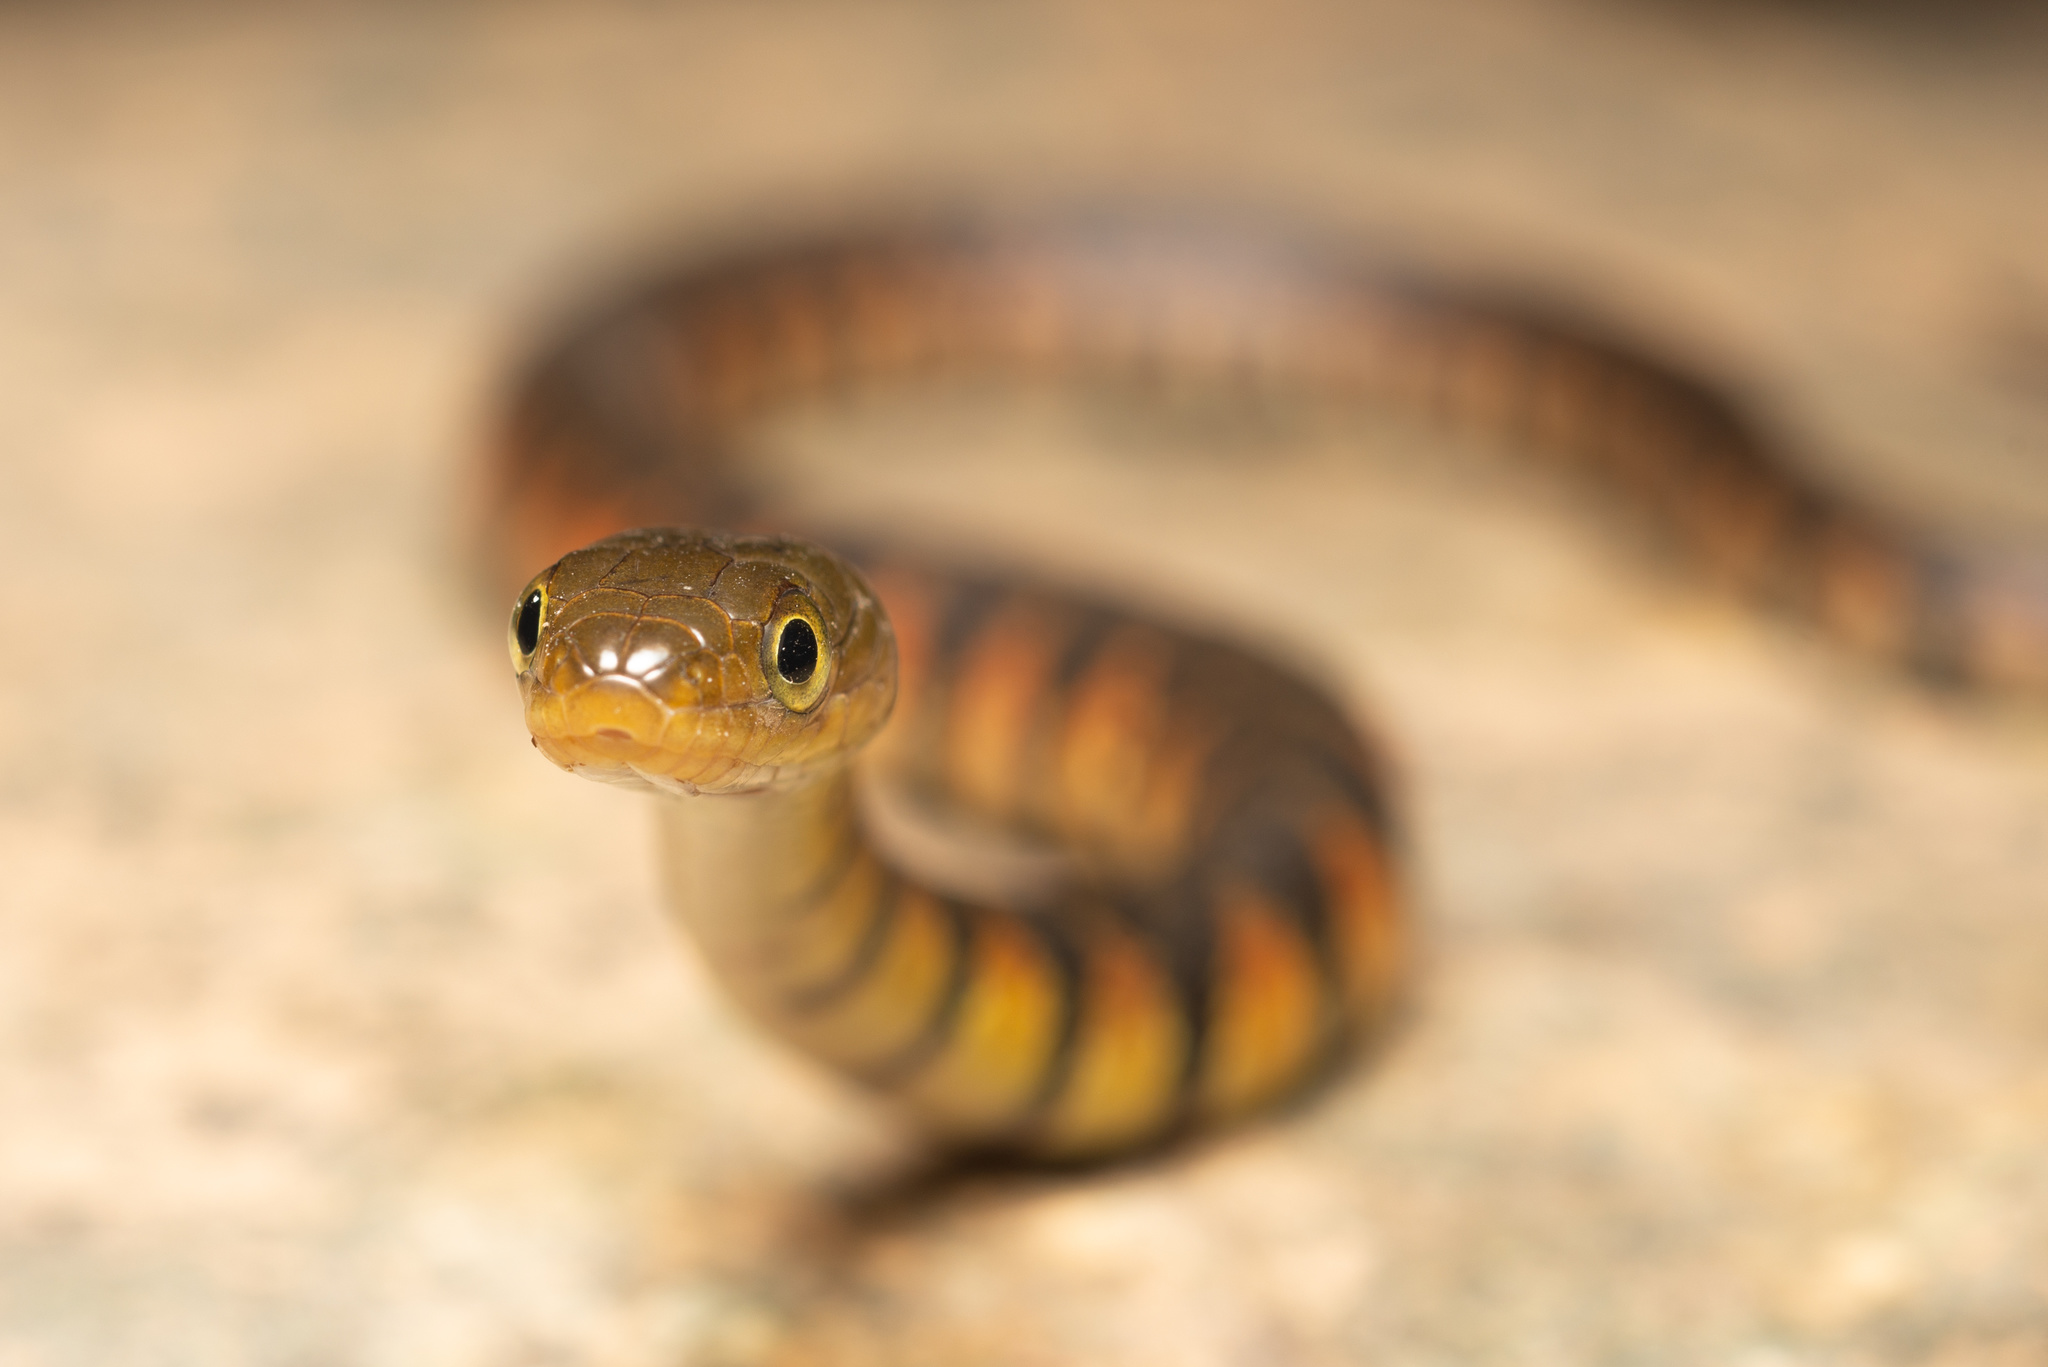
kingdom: Animalia
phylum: Chordata
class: Squamata
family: Colubridae
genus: Trimerodytes
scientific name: Trimerodytes percarinatus
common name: Eastern water snake
